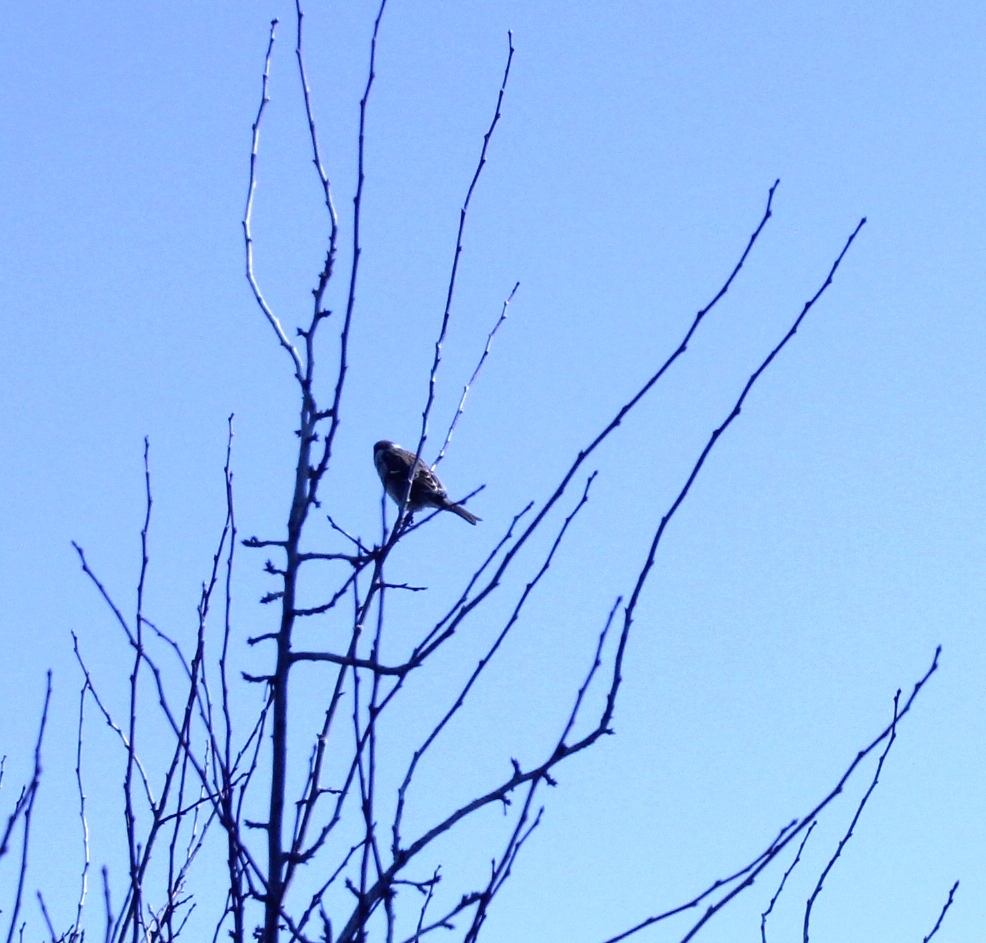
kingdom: Animalia
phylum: Chordata
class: Aves
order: Passeriformes
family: Passeridae
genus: Passer
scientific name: Passer montanus
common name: Eurasian tree sparrow
